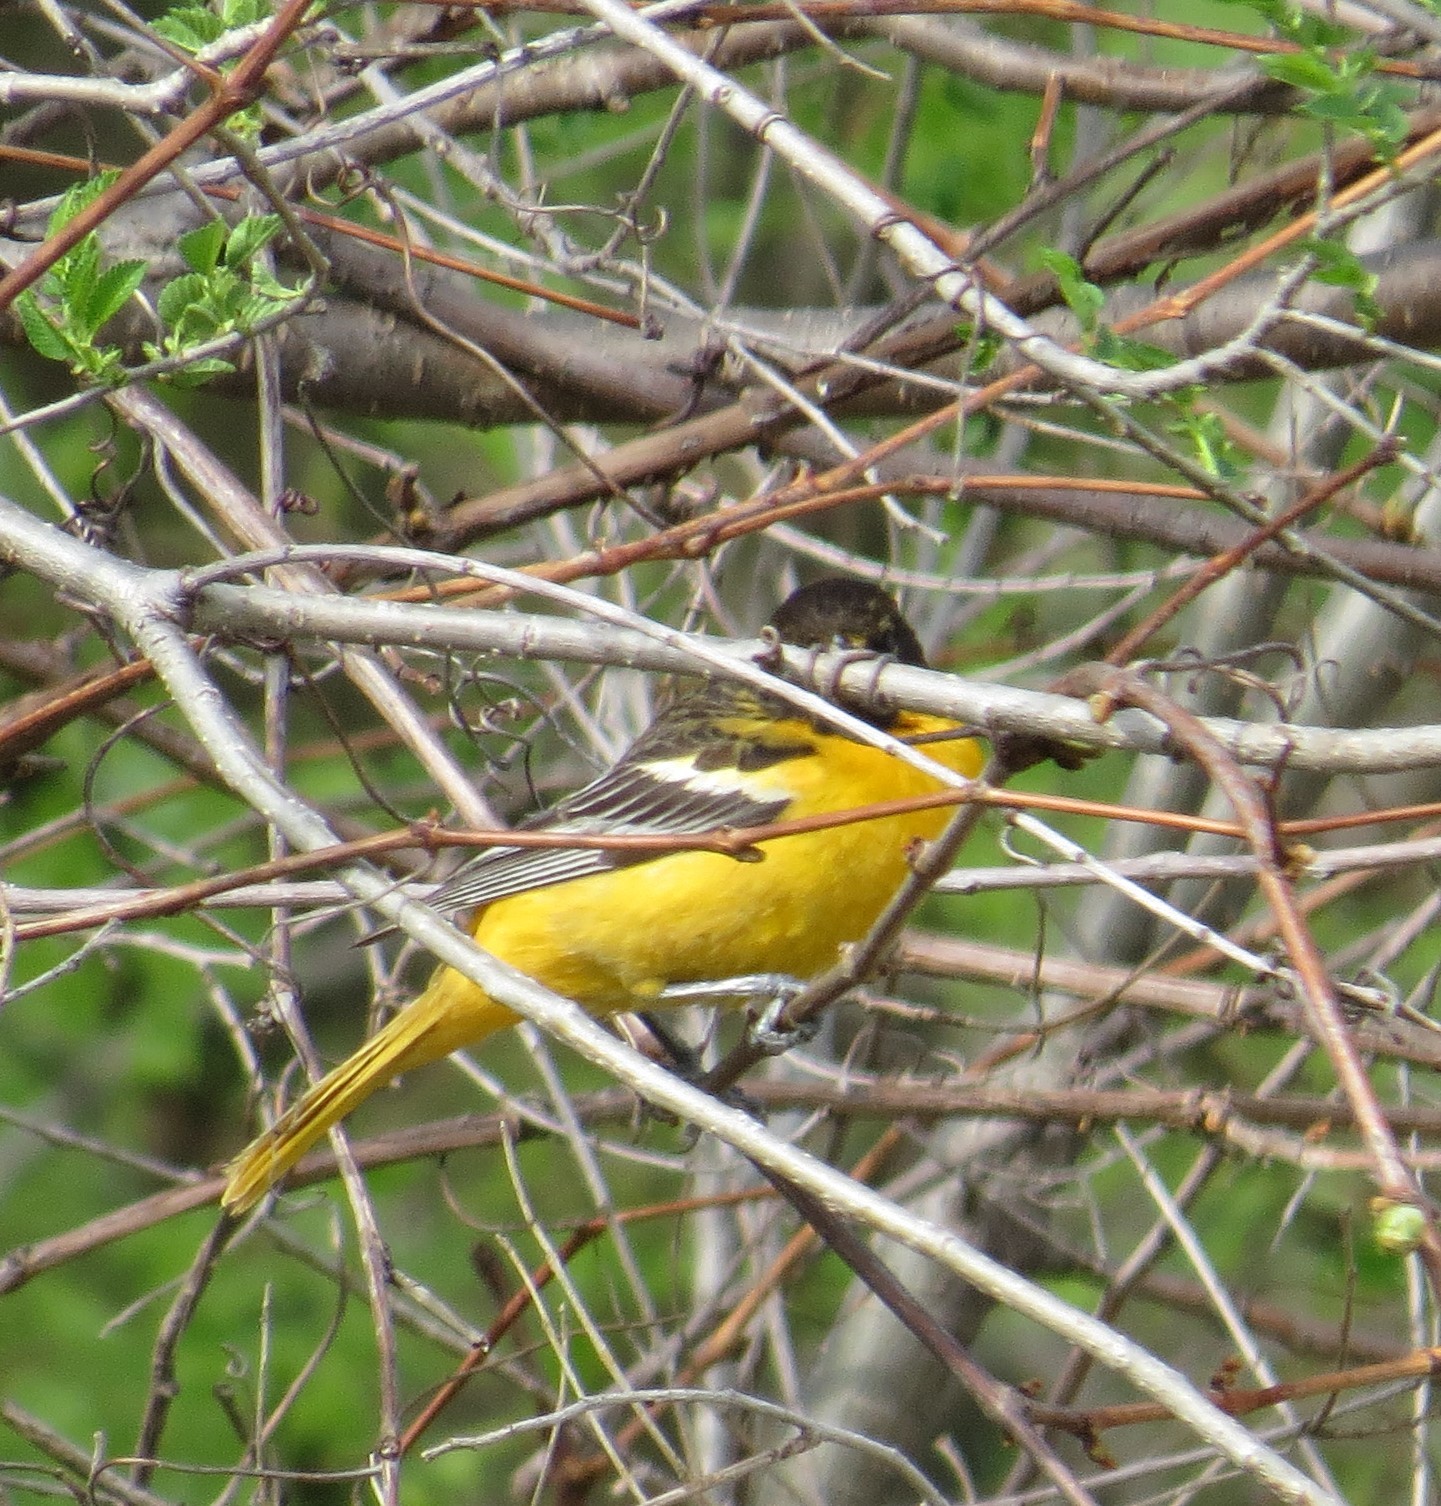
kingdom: Animalia
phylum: Chordata
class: Aves
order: Passeriformes
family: Icteridae
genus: Icterus
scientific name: Icterus galbula
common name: Baltimore oriole
